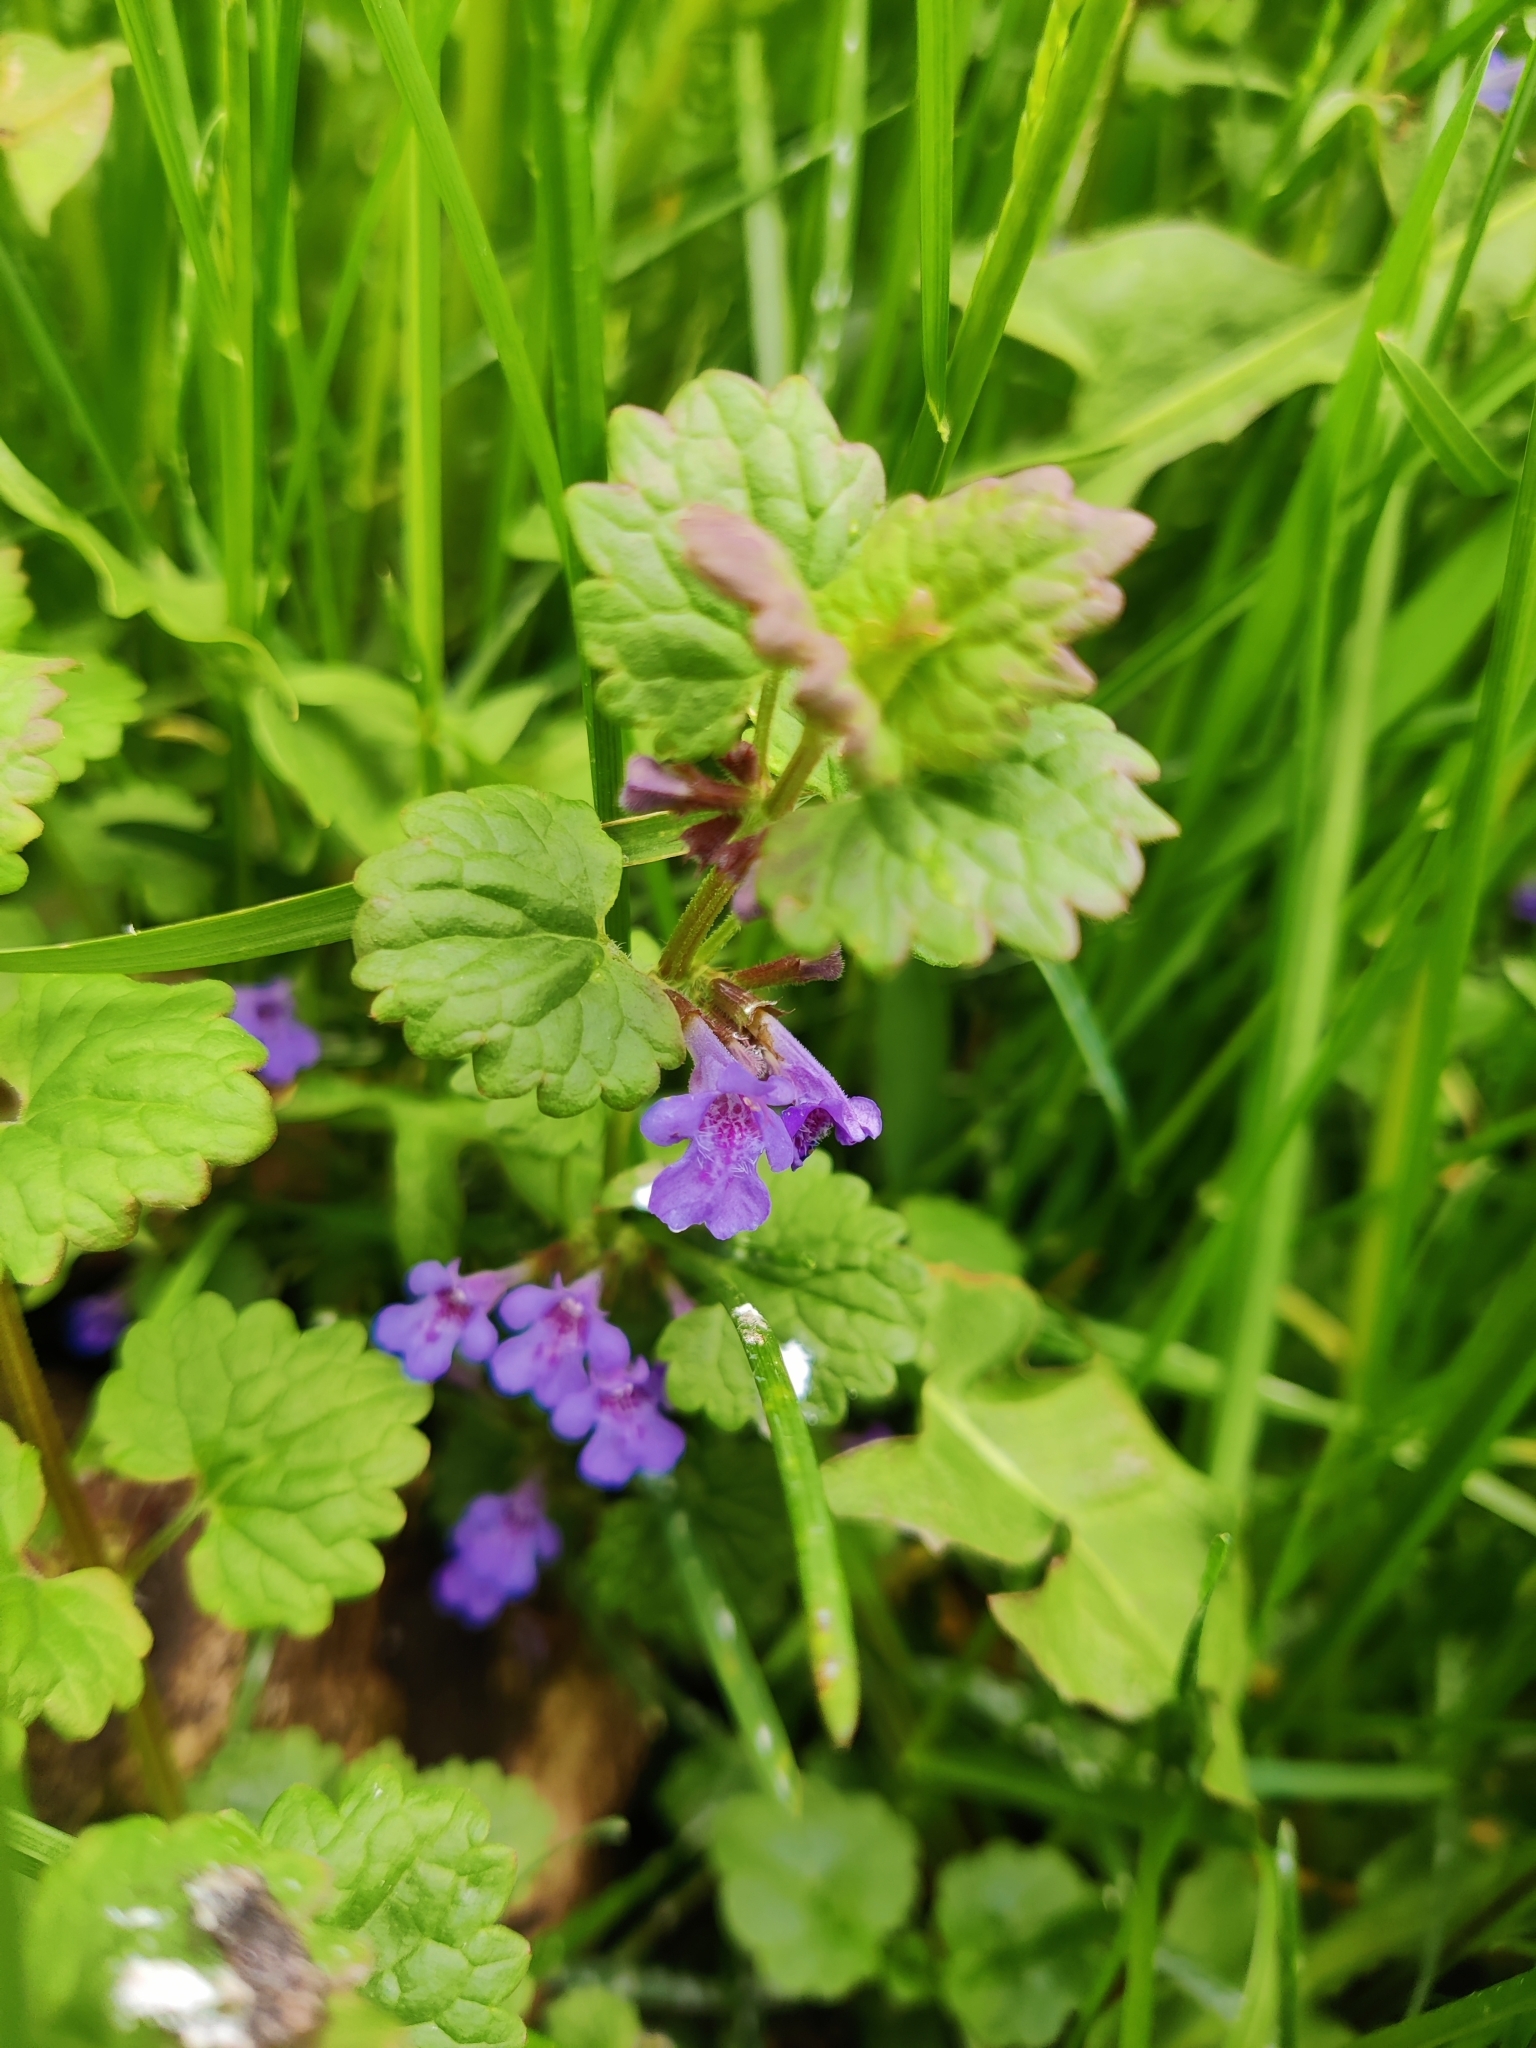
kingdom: Plantae
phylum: Tracheophyta
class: Magnoliopsida
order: Lamiales
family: Lamiaceae
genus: Glechoma
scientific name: Glechoma hederacea
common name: Ground ivy
